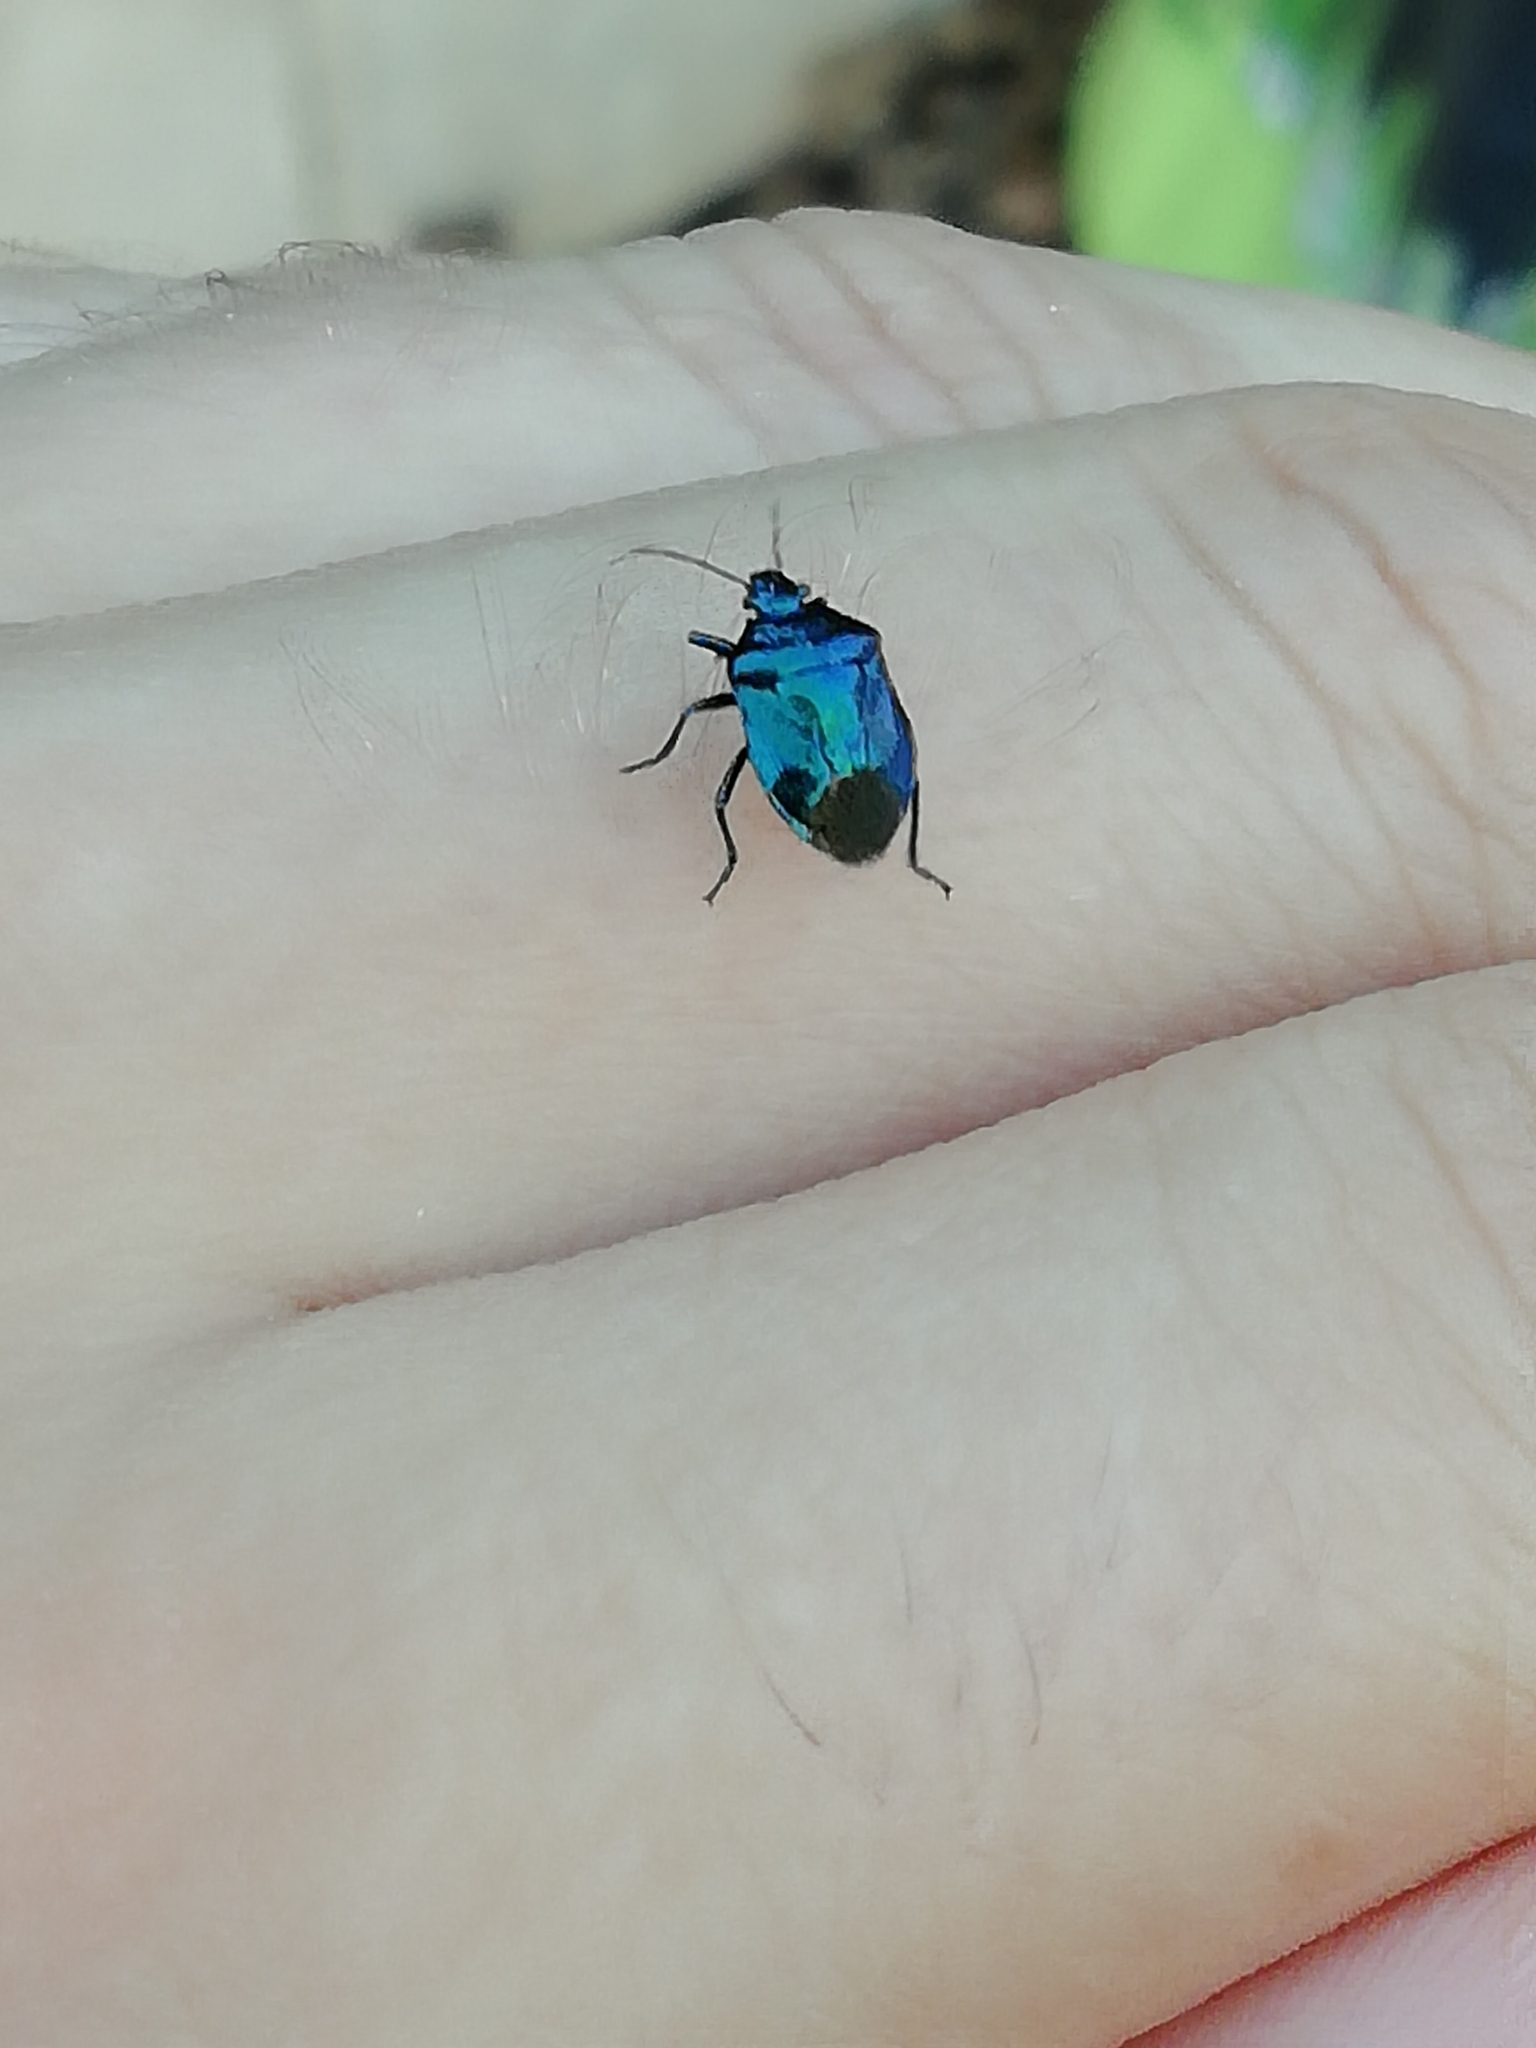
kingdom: Animalia
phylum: Arthropoda
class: Insecta
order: Hemiptera
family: Pentatomidae
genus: Zicrona
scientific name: Zicrona caerulea
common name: Blue shieldbug
